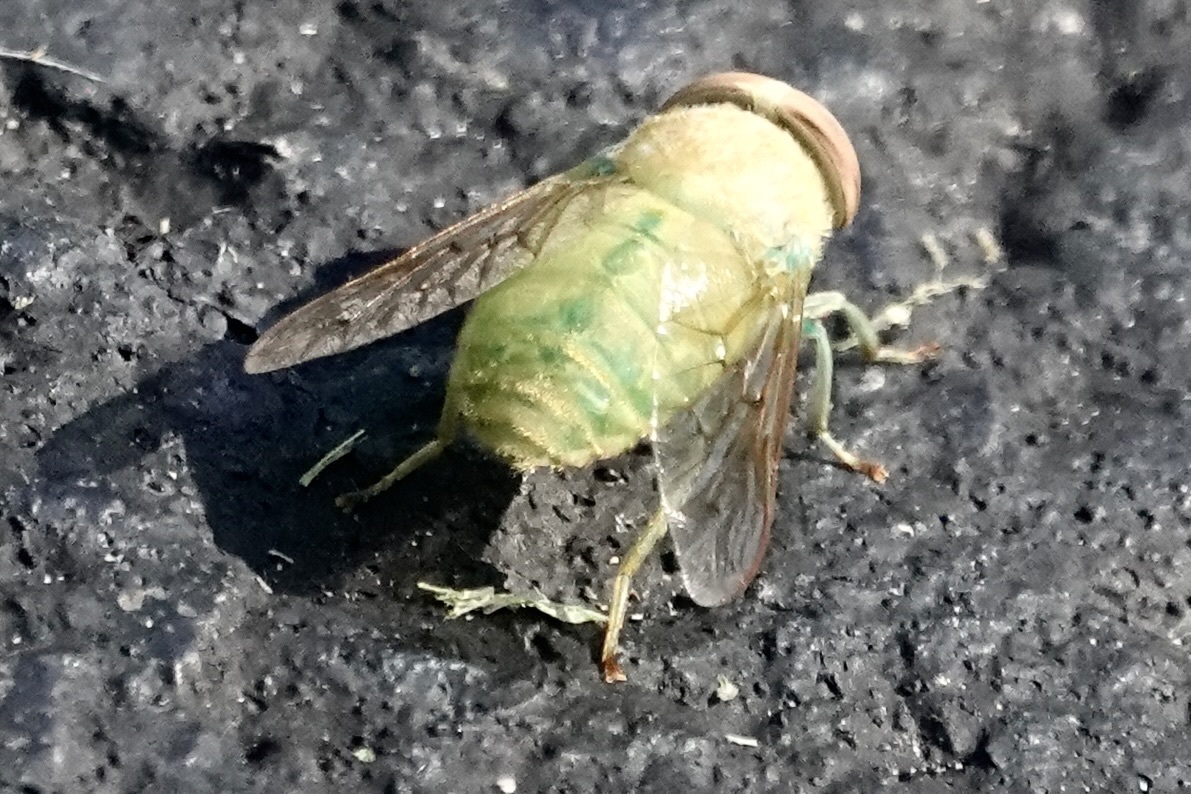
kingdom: Animalia
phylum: Arthropoda
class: Insecta
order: Diptera
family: Tabanidae
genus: Chlorotabanus
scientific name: Chlorotabanus crepuscularis
